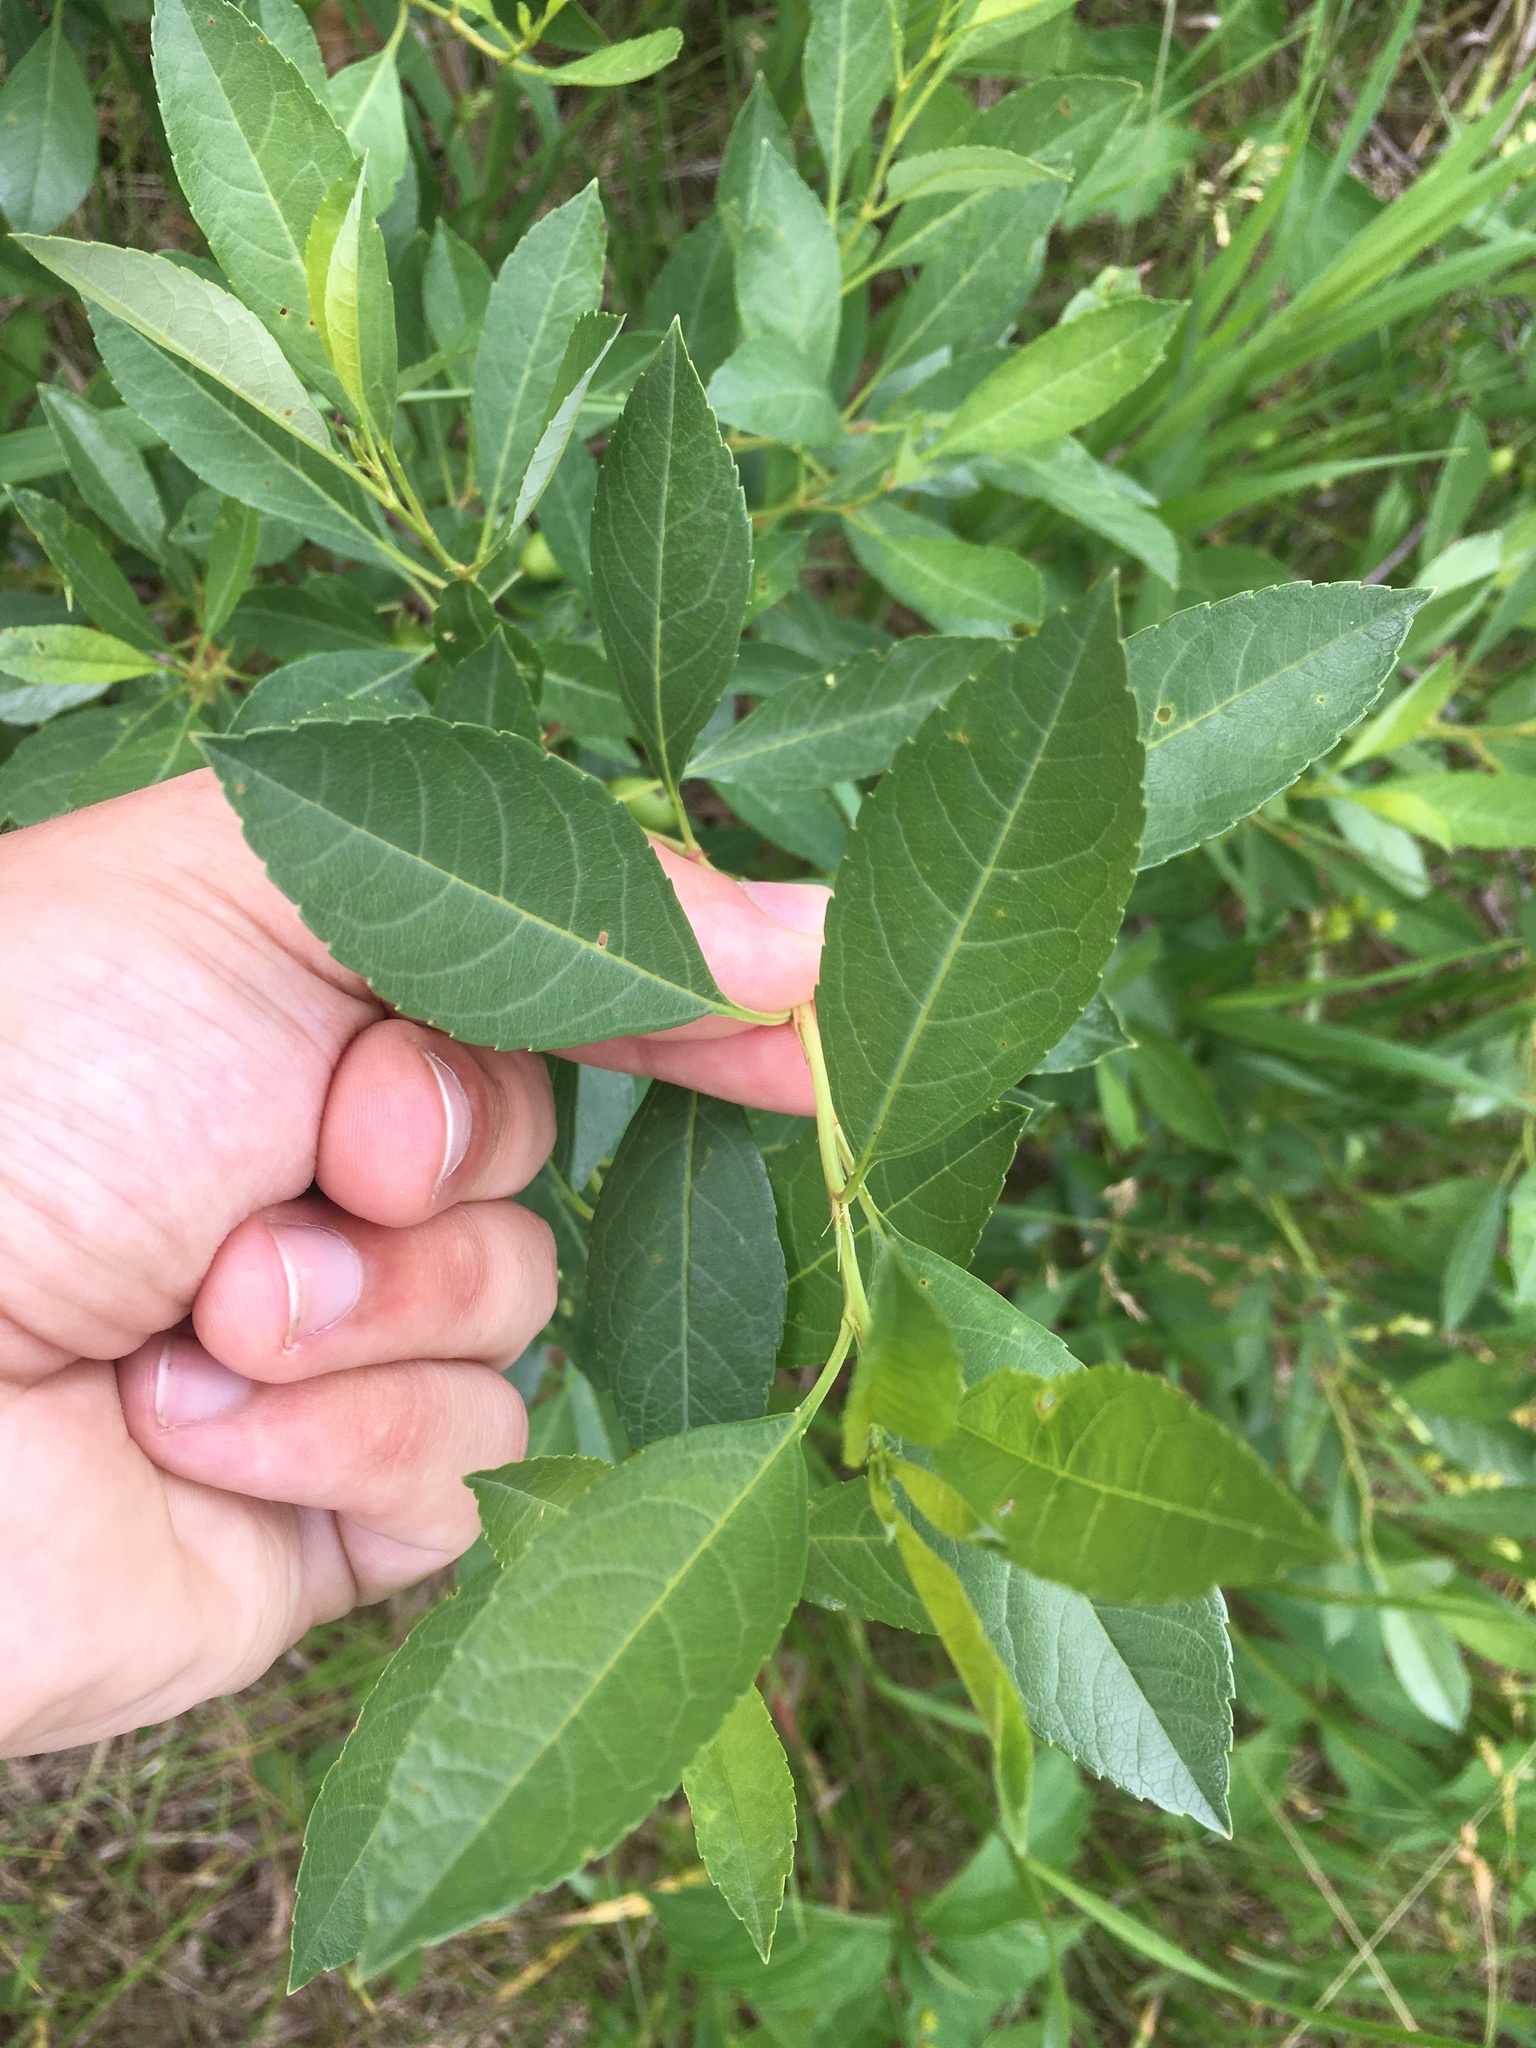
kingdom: Plantae
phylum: Tracheophyta
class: Magnoliopsida
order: Rosales
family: Rosaceae
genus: Prunus
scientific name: Prunus pumila
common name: Dwarf cherry
